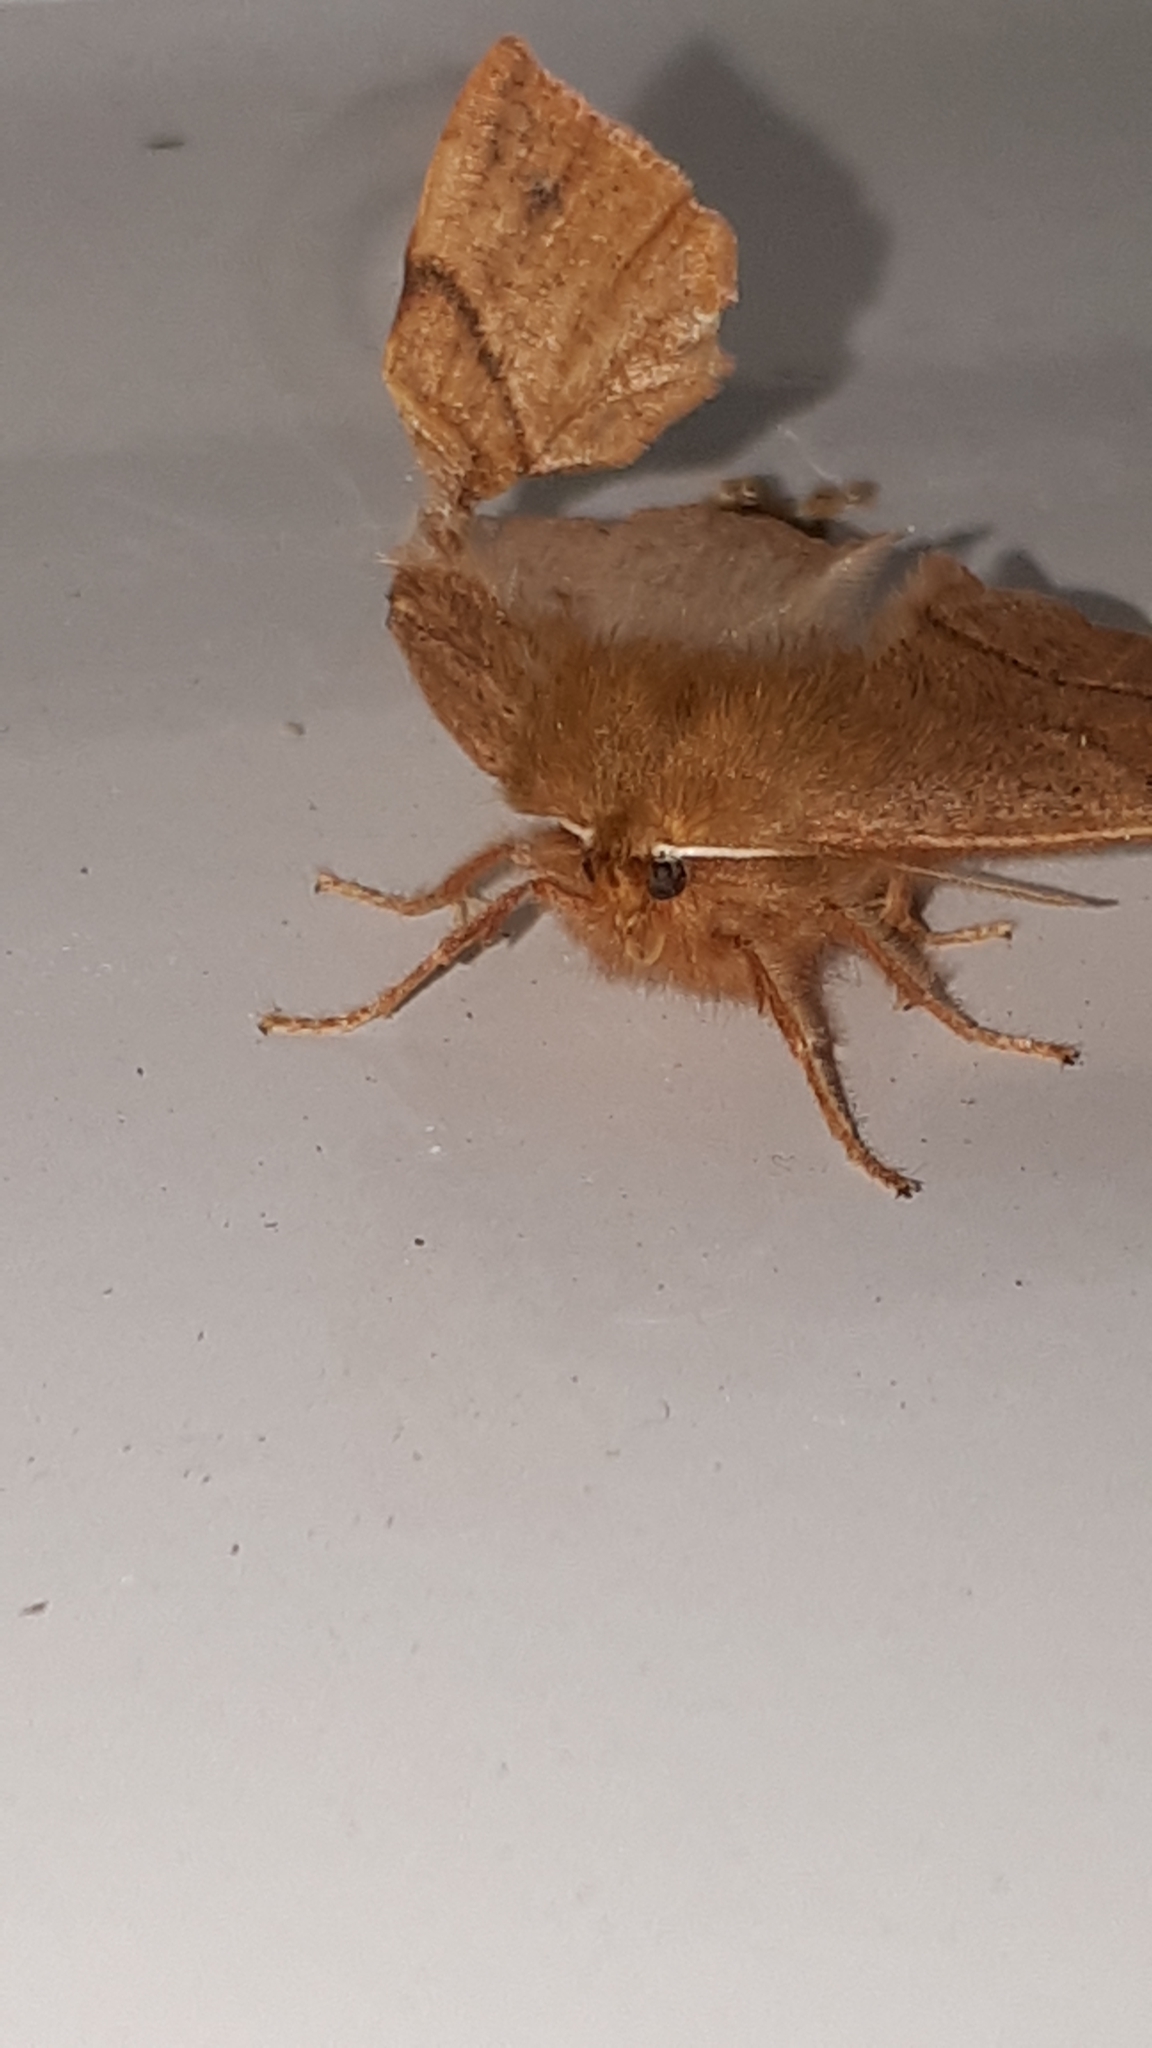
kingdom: Animalia
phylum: Arthropoda
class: Insecta
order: Lepidoptera
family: Geometridae
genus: Colotois
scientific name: Colotois pennaria
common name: Feathered thorn
